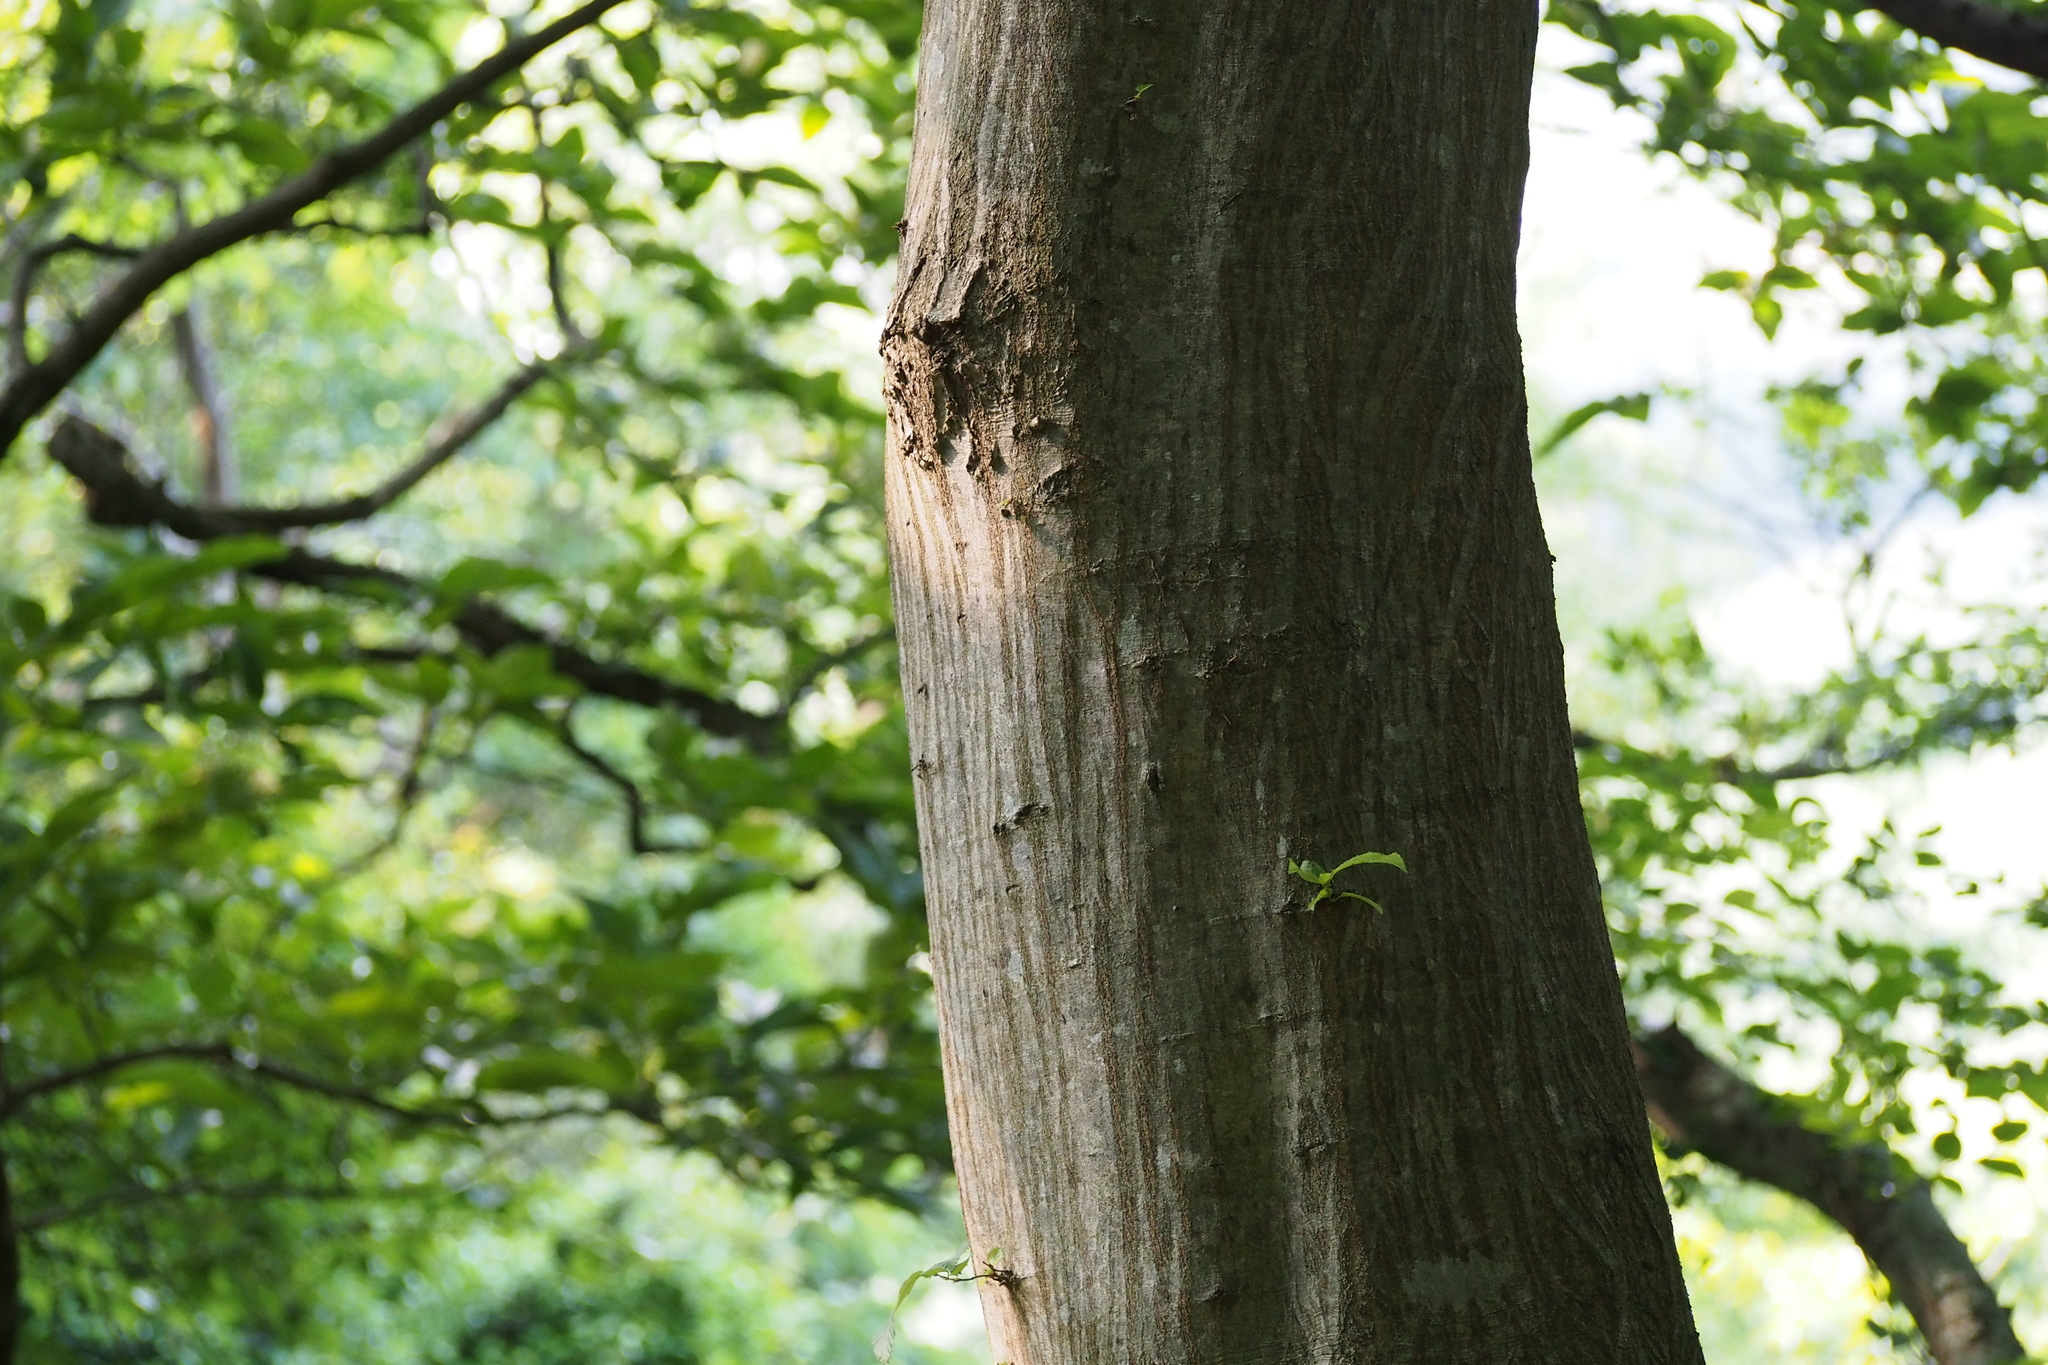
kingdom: Plantae
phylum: Tracheophyta
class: Magnoliopsida
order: Fagales
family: Betulaceae
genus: Carpinus
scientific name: Carpinus tschonoskii
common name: Asian hornbeam
